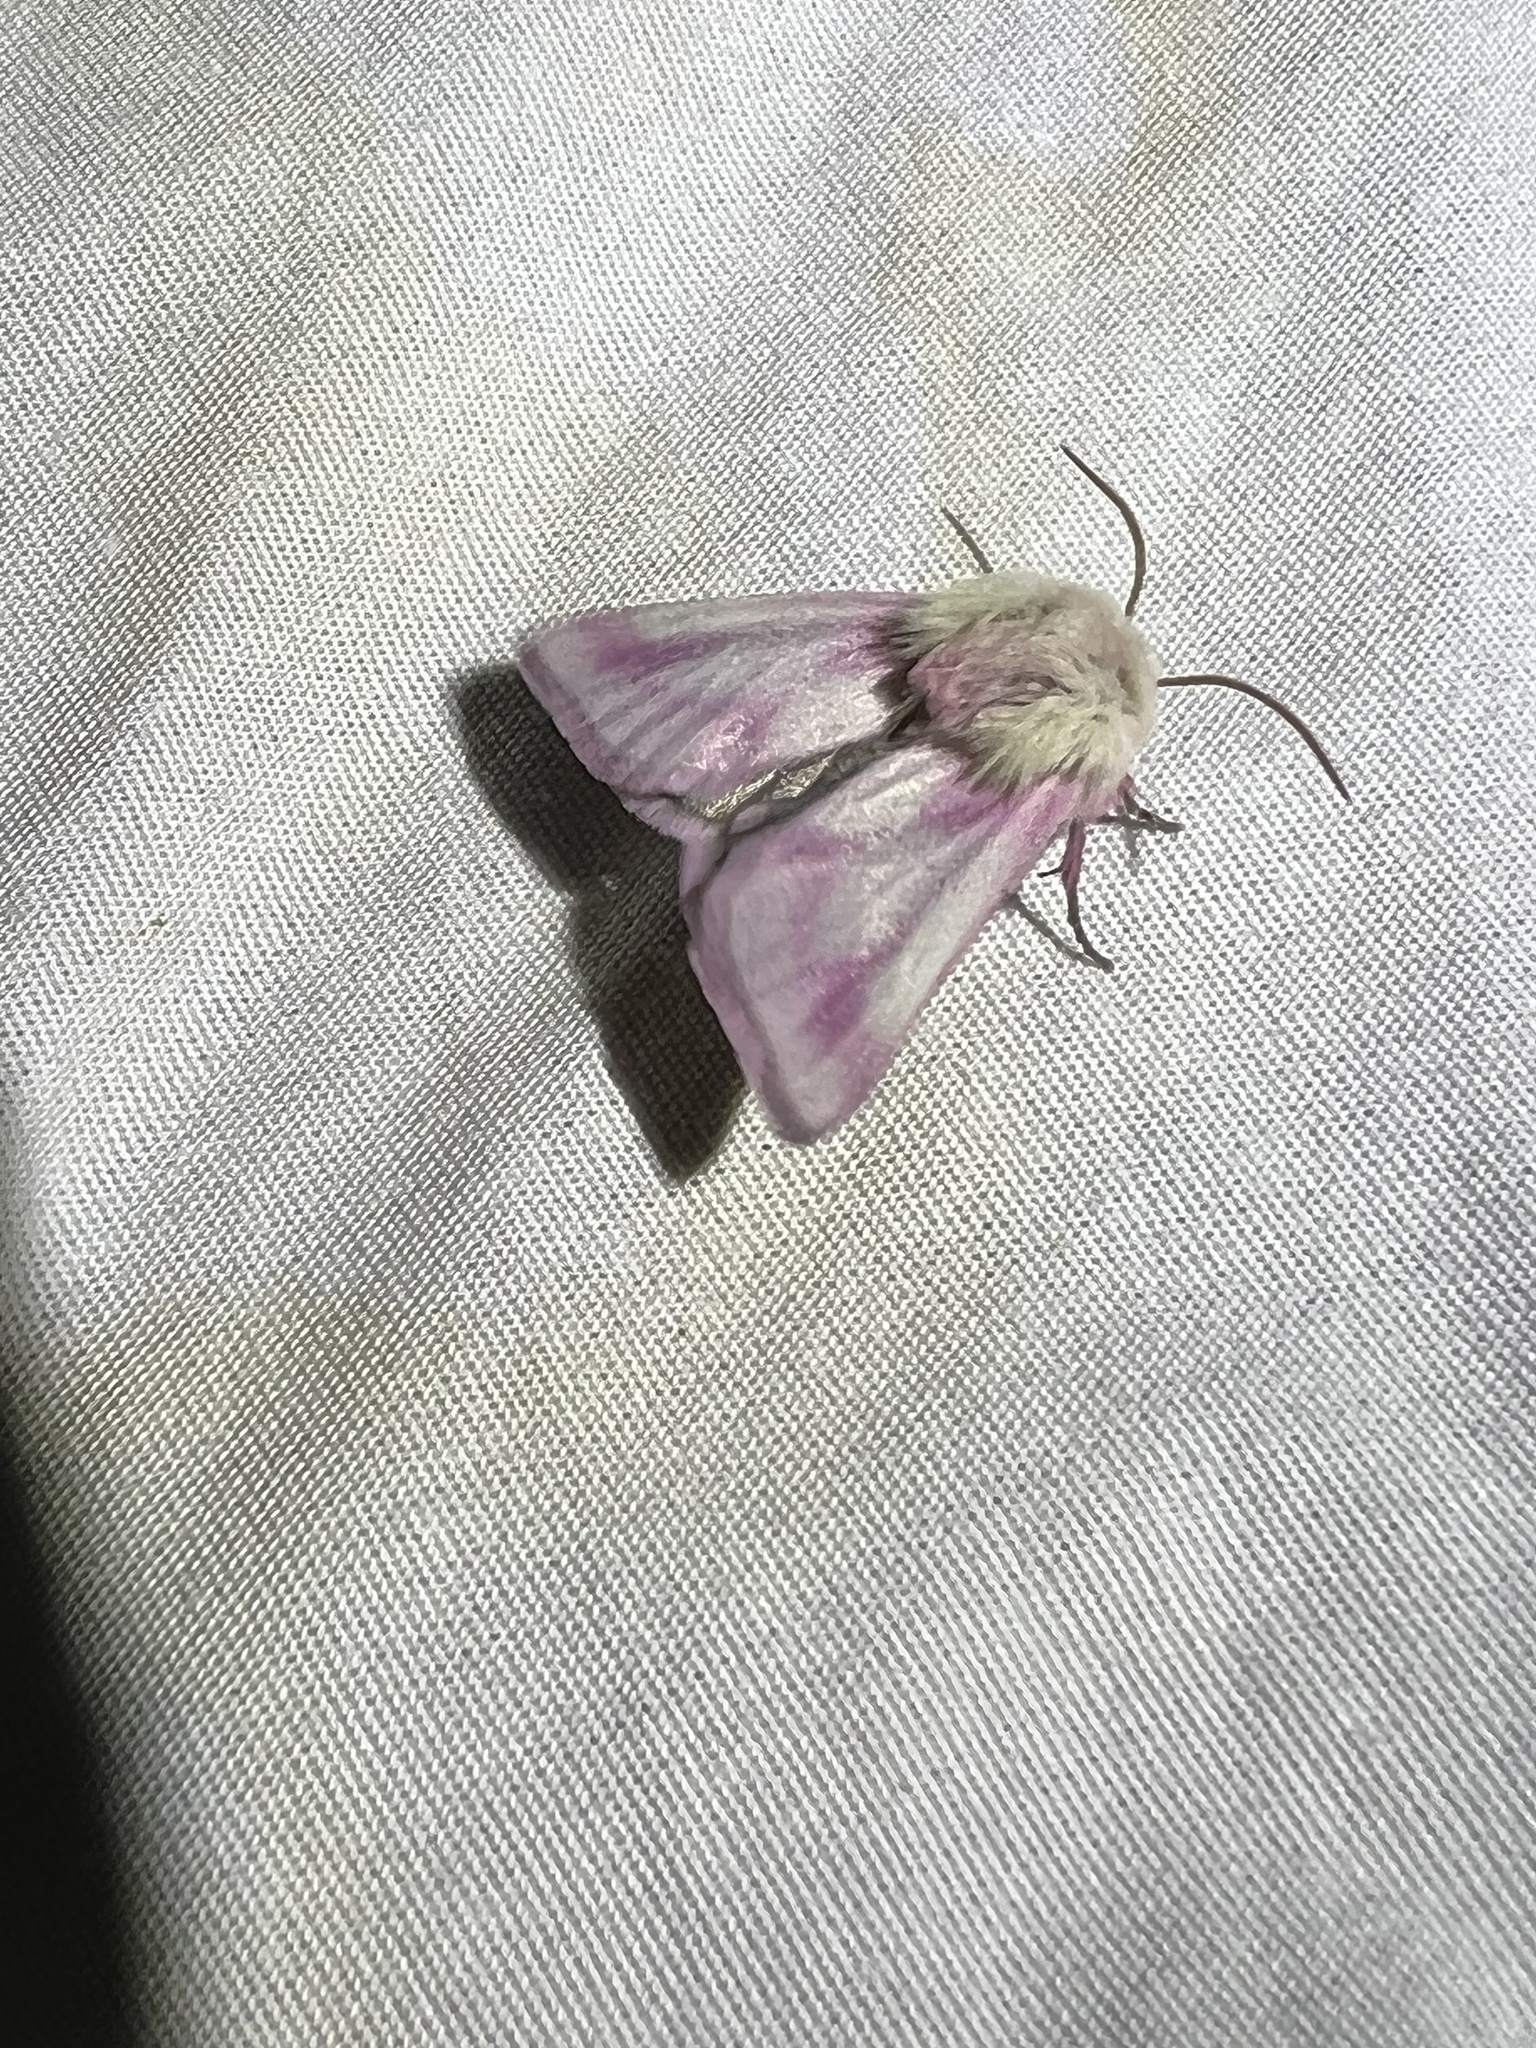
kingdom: Animalia
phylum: Arthropoda
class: Insecta
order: Lepidoptera
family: Noctuidae
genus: Schinia
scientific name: Schinia snowi
